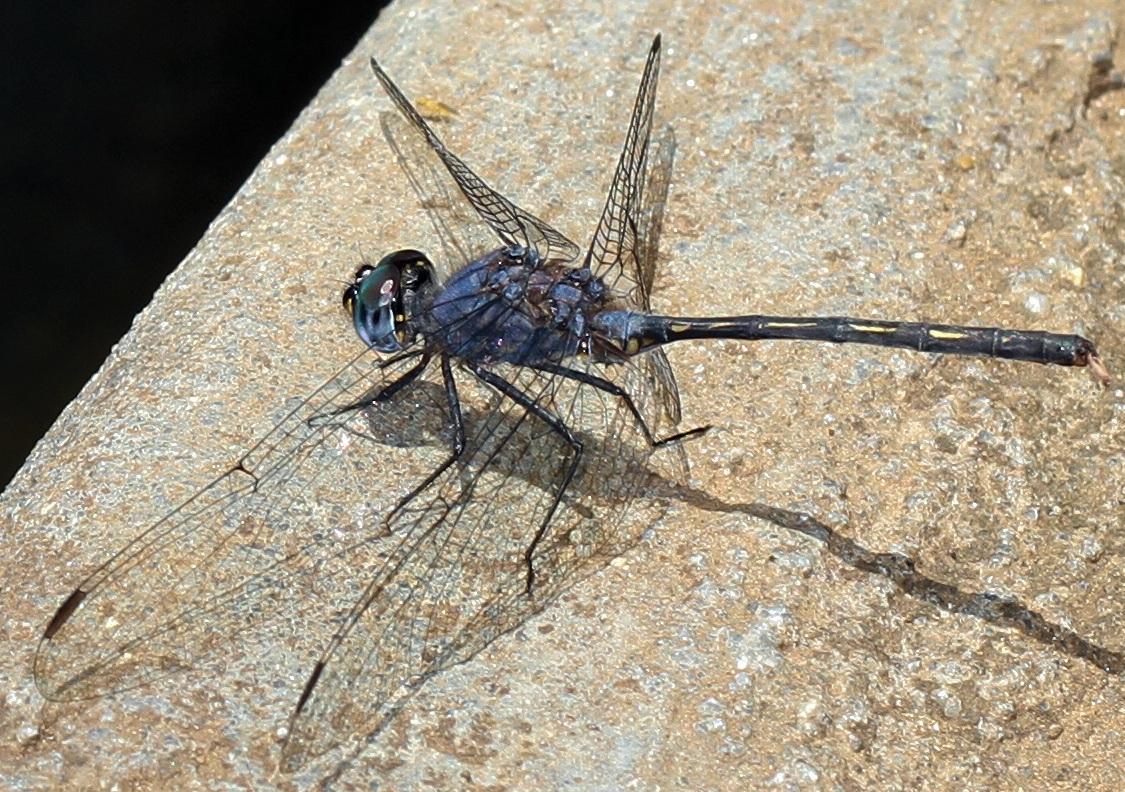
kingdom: Animalia
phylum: Arthropoda
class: Insecta
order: Odonata
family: Libellulidae
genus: Trithemis
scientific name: Trithemis aconita
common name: Halfshade dropwing
